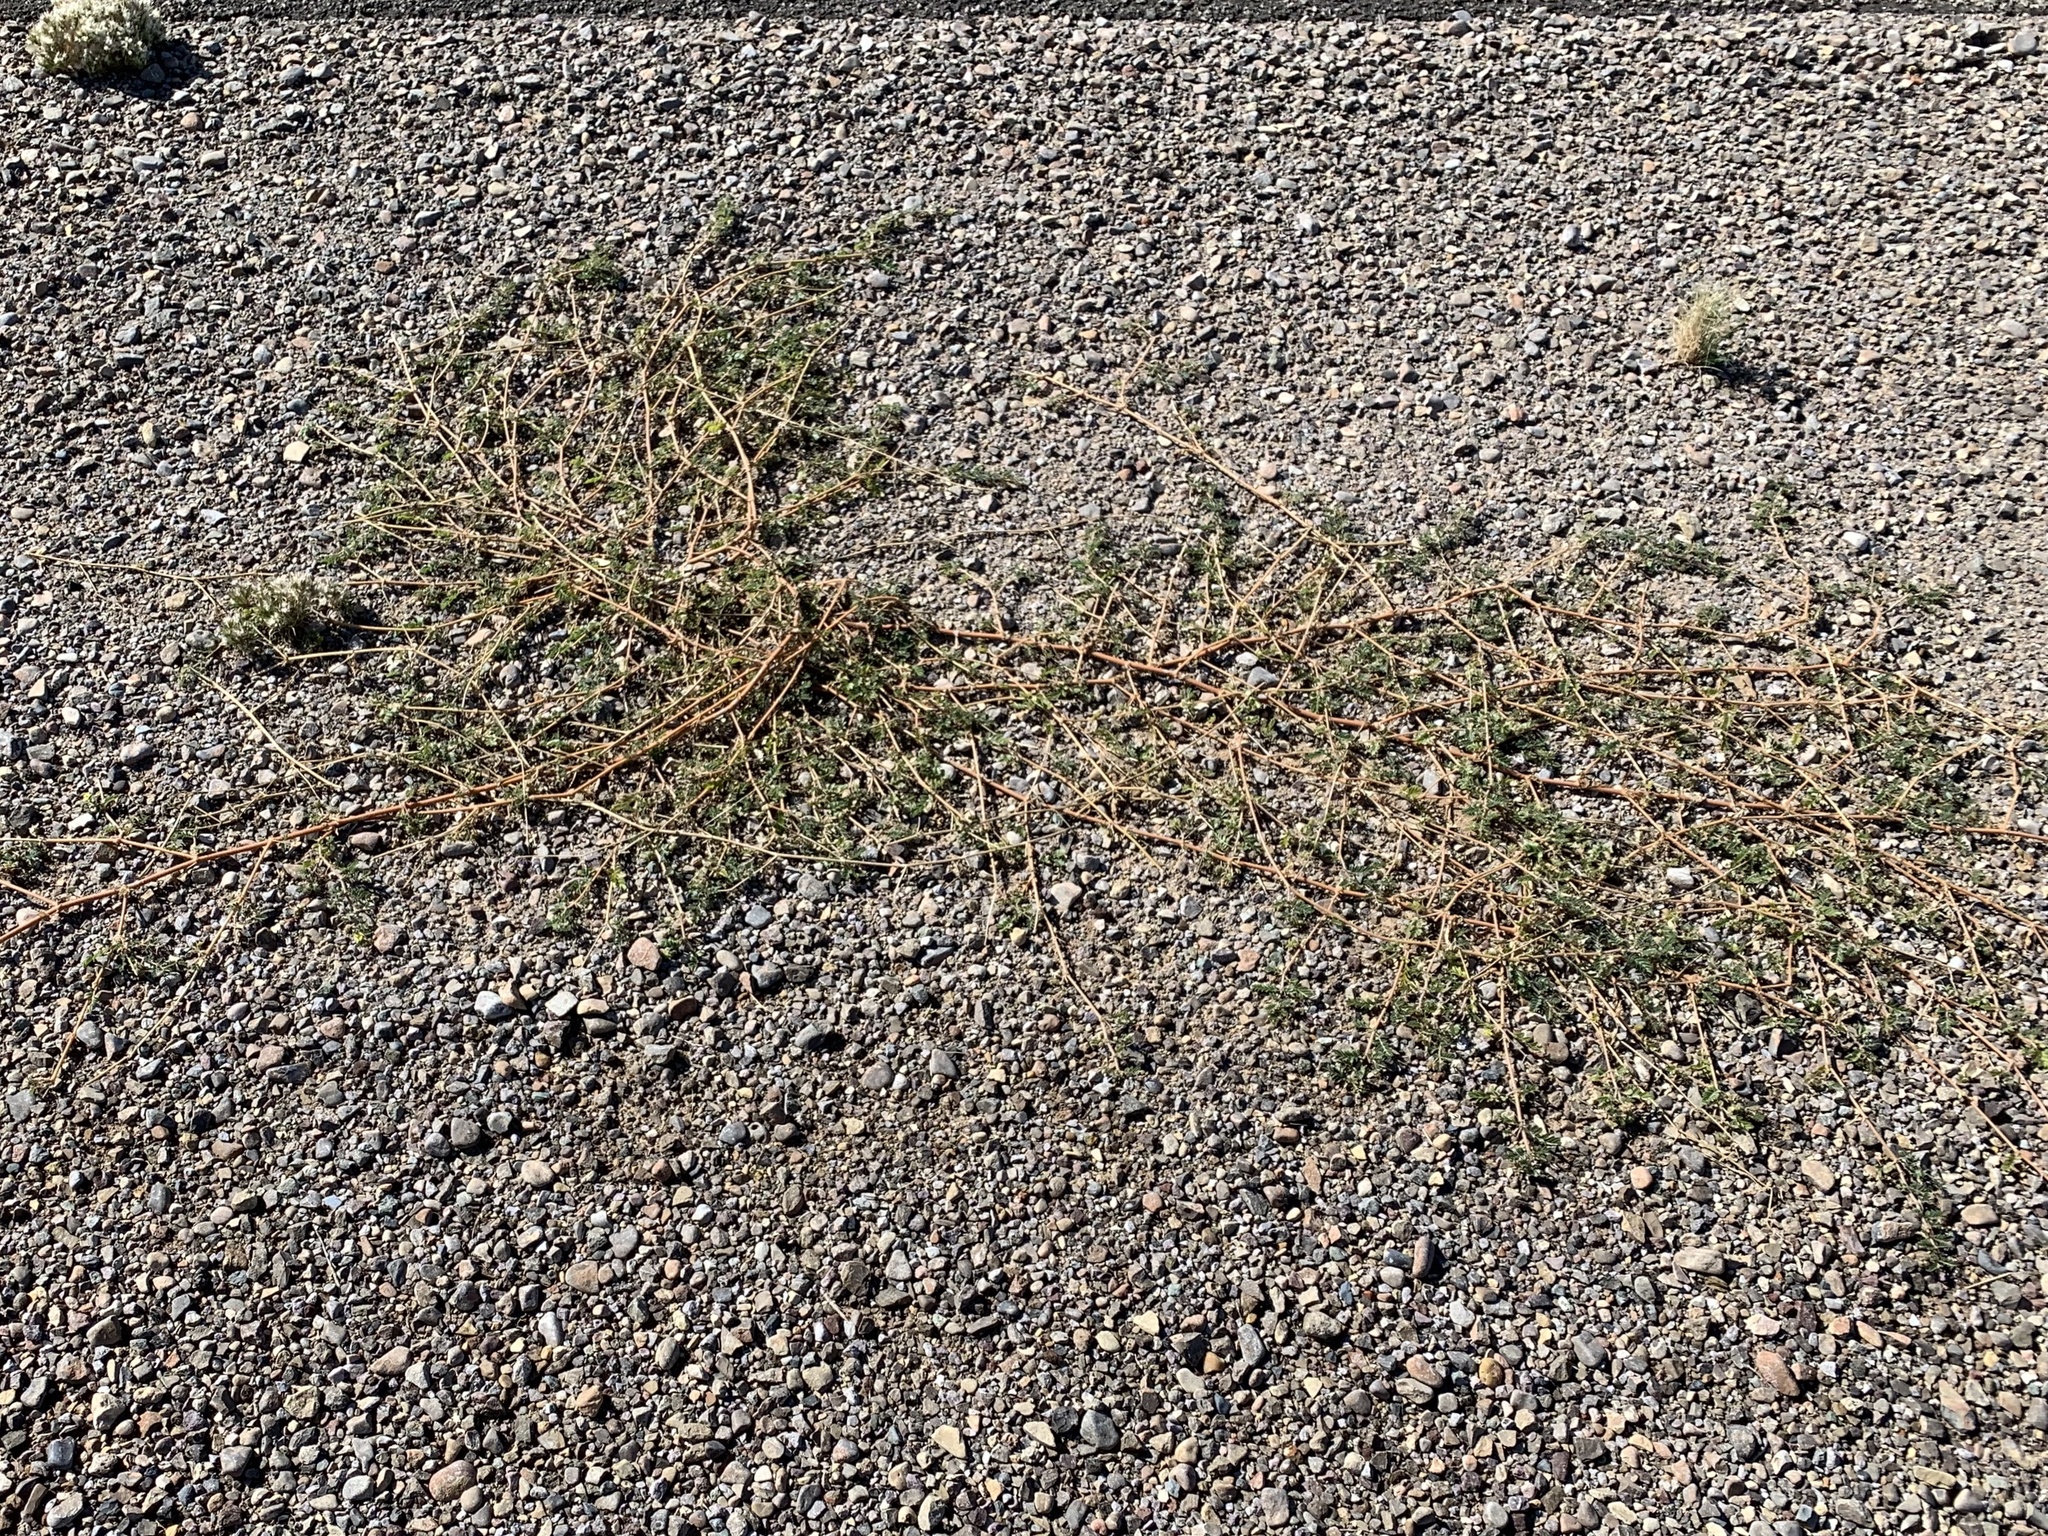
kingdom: Plantae
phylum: Tracheophyta
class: Magnoliopsida
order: Zygophyllales
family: Zygophyllaceae
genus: Tribulus
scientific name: Tribulus terrestris
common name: Puncturevine
